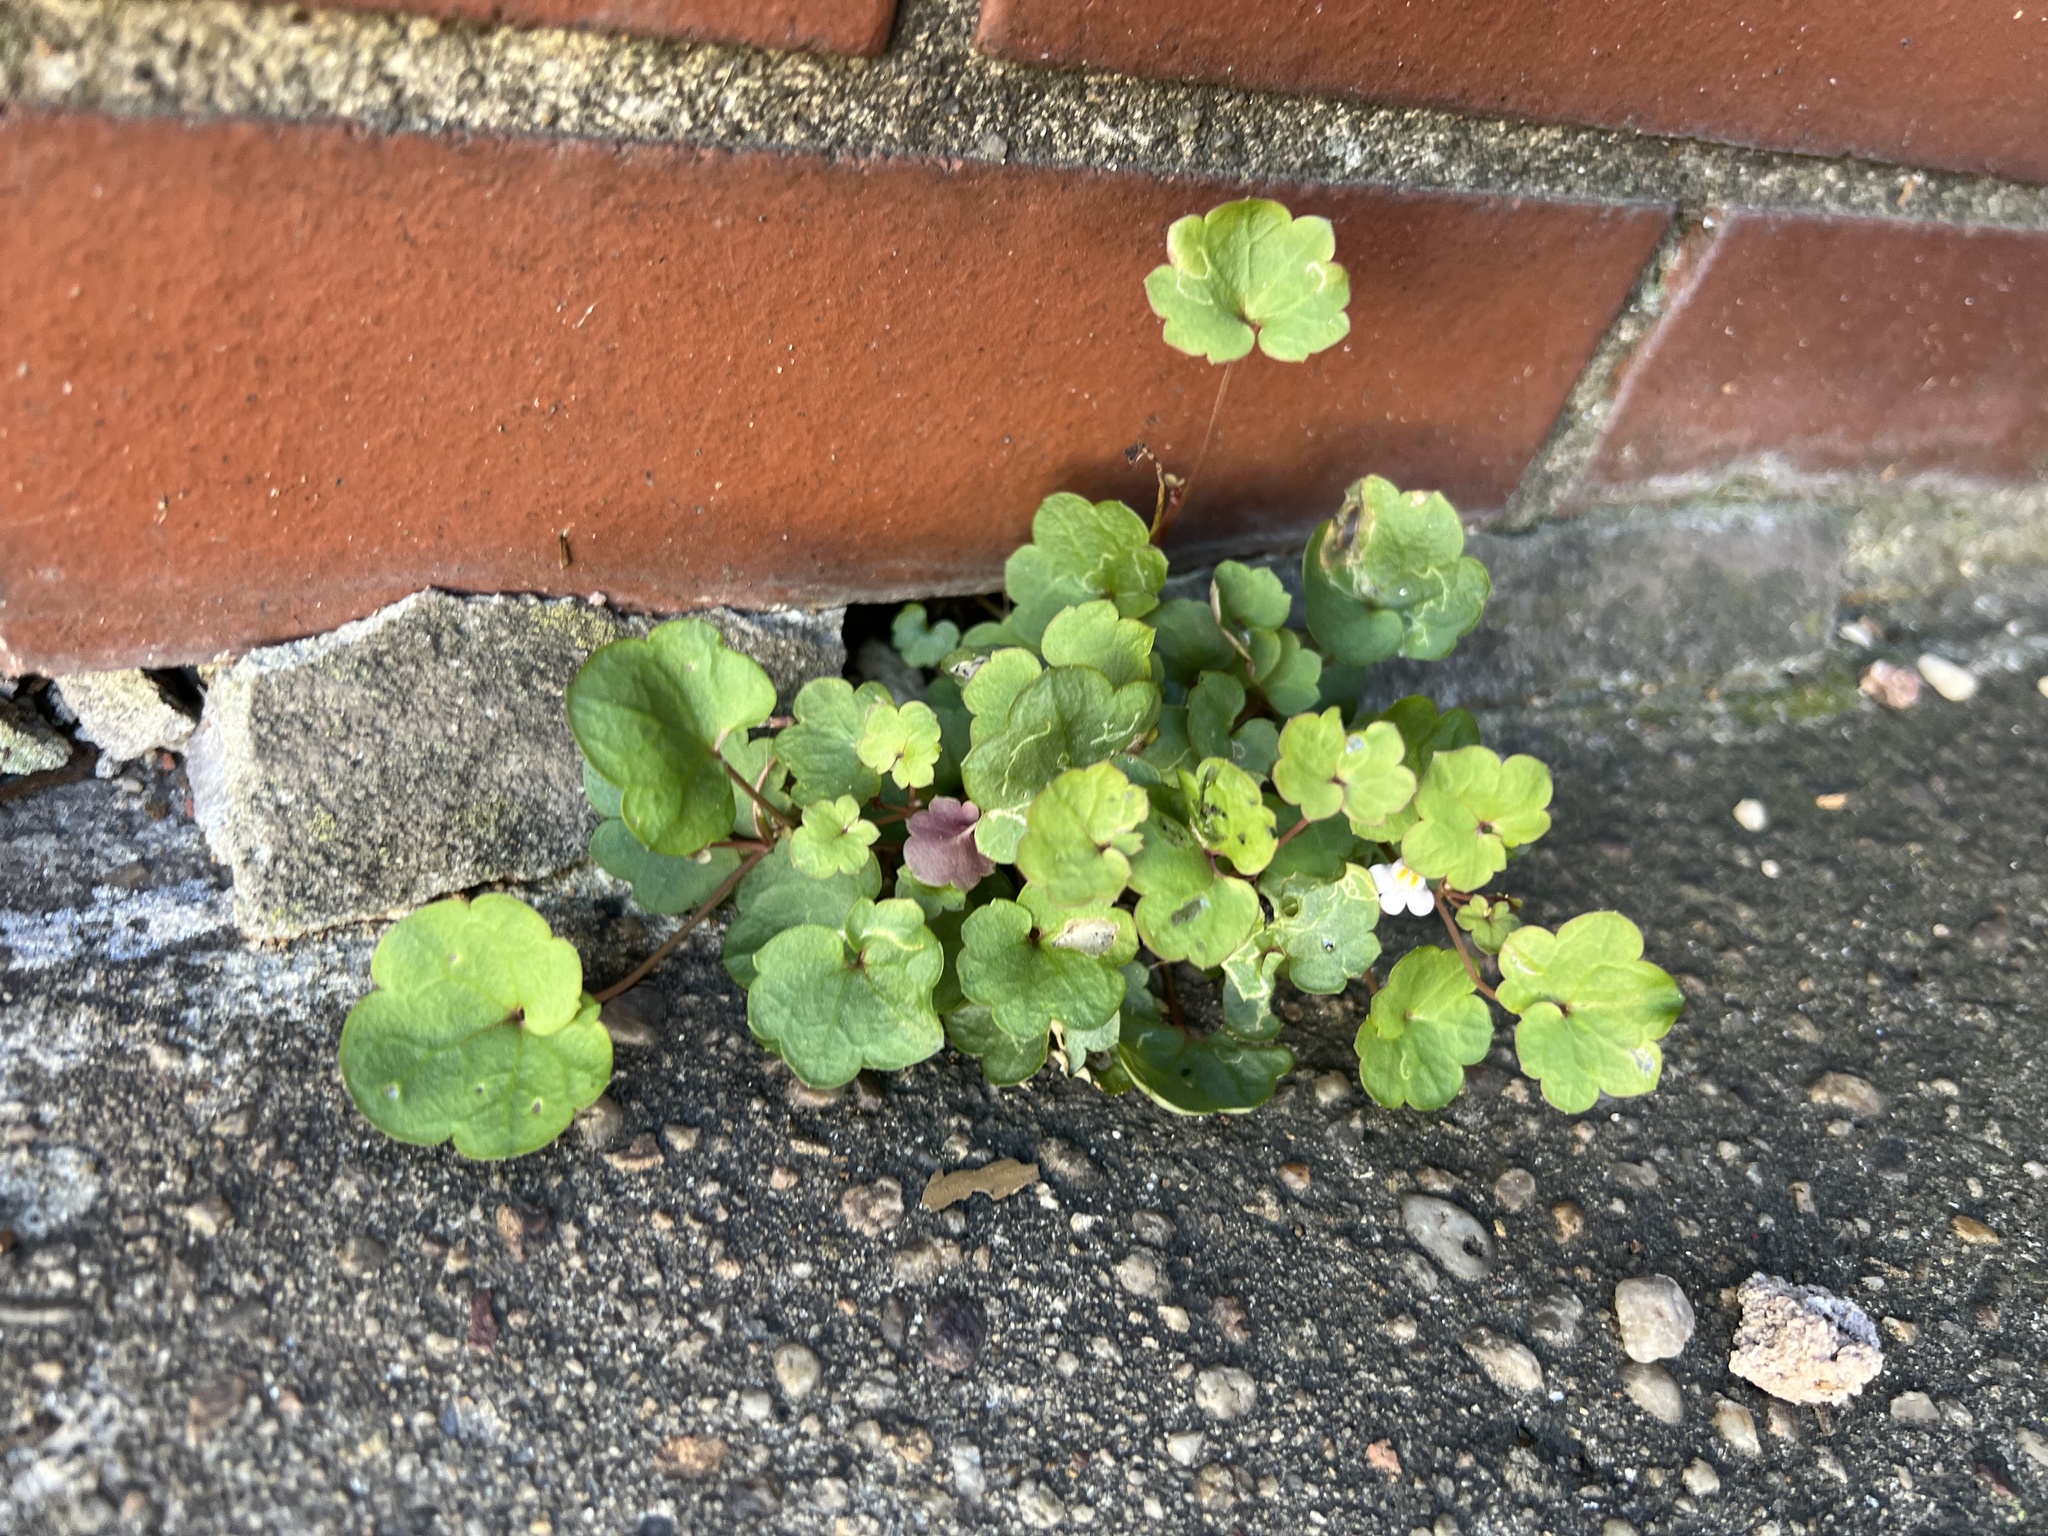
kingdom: Plantae
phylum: Tracheophyta
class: Magnoliopsida
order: Lamiales
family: Plantaginaceae
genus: Cymbalaria
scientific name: Cymbalaria muralis
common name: Ivy-leaved toadflax
